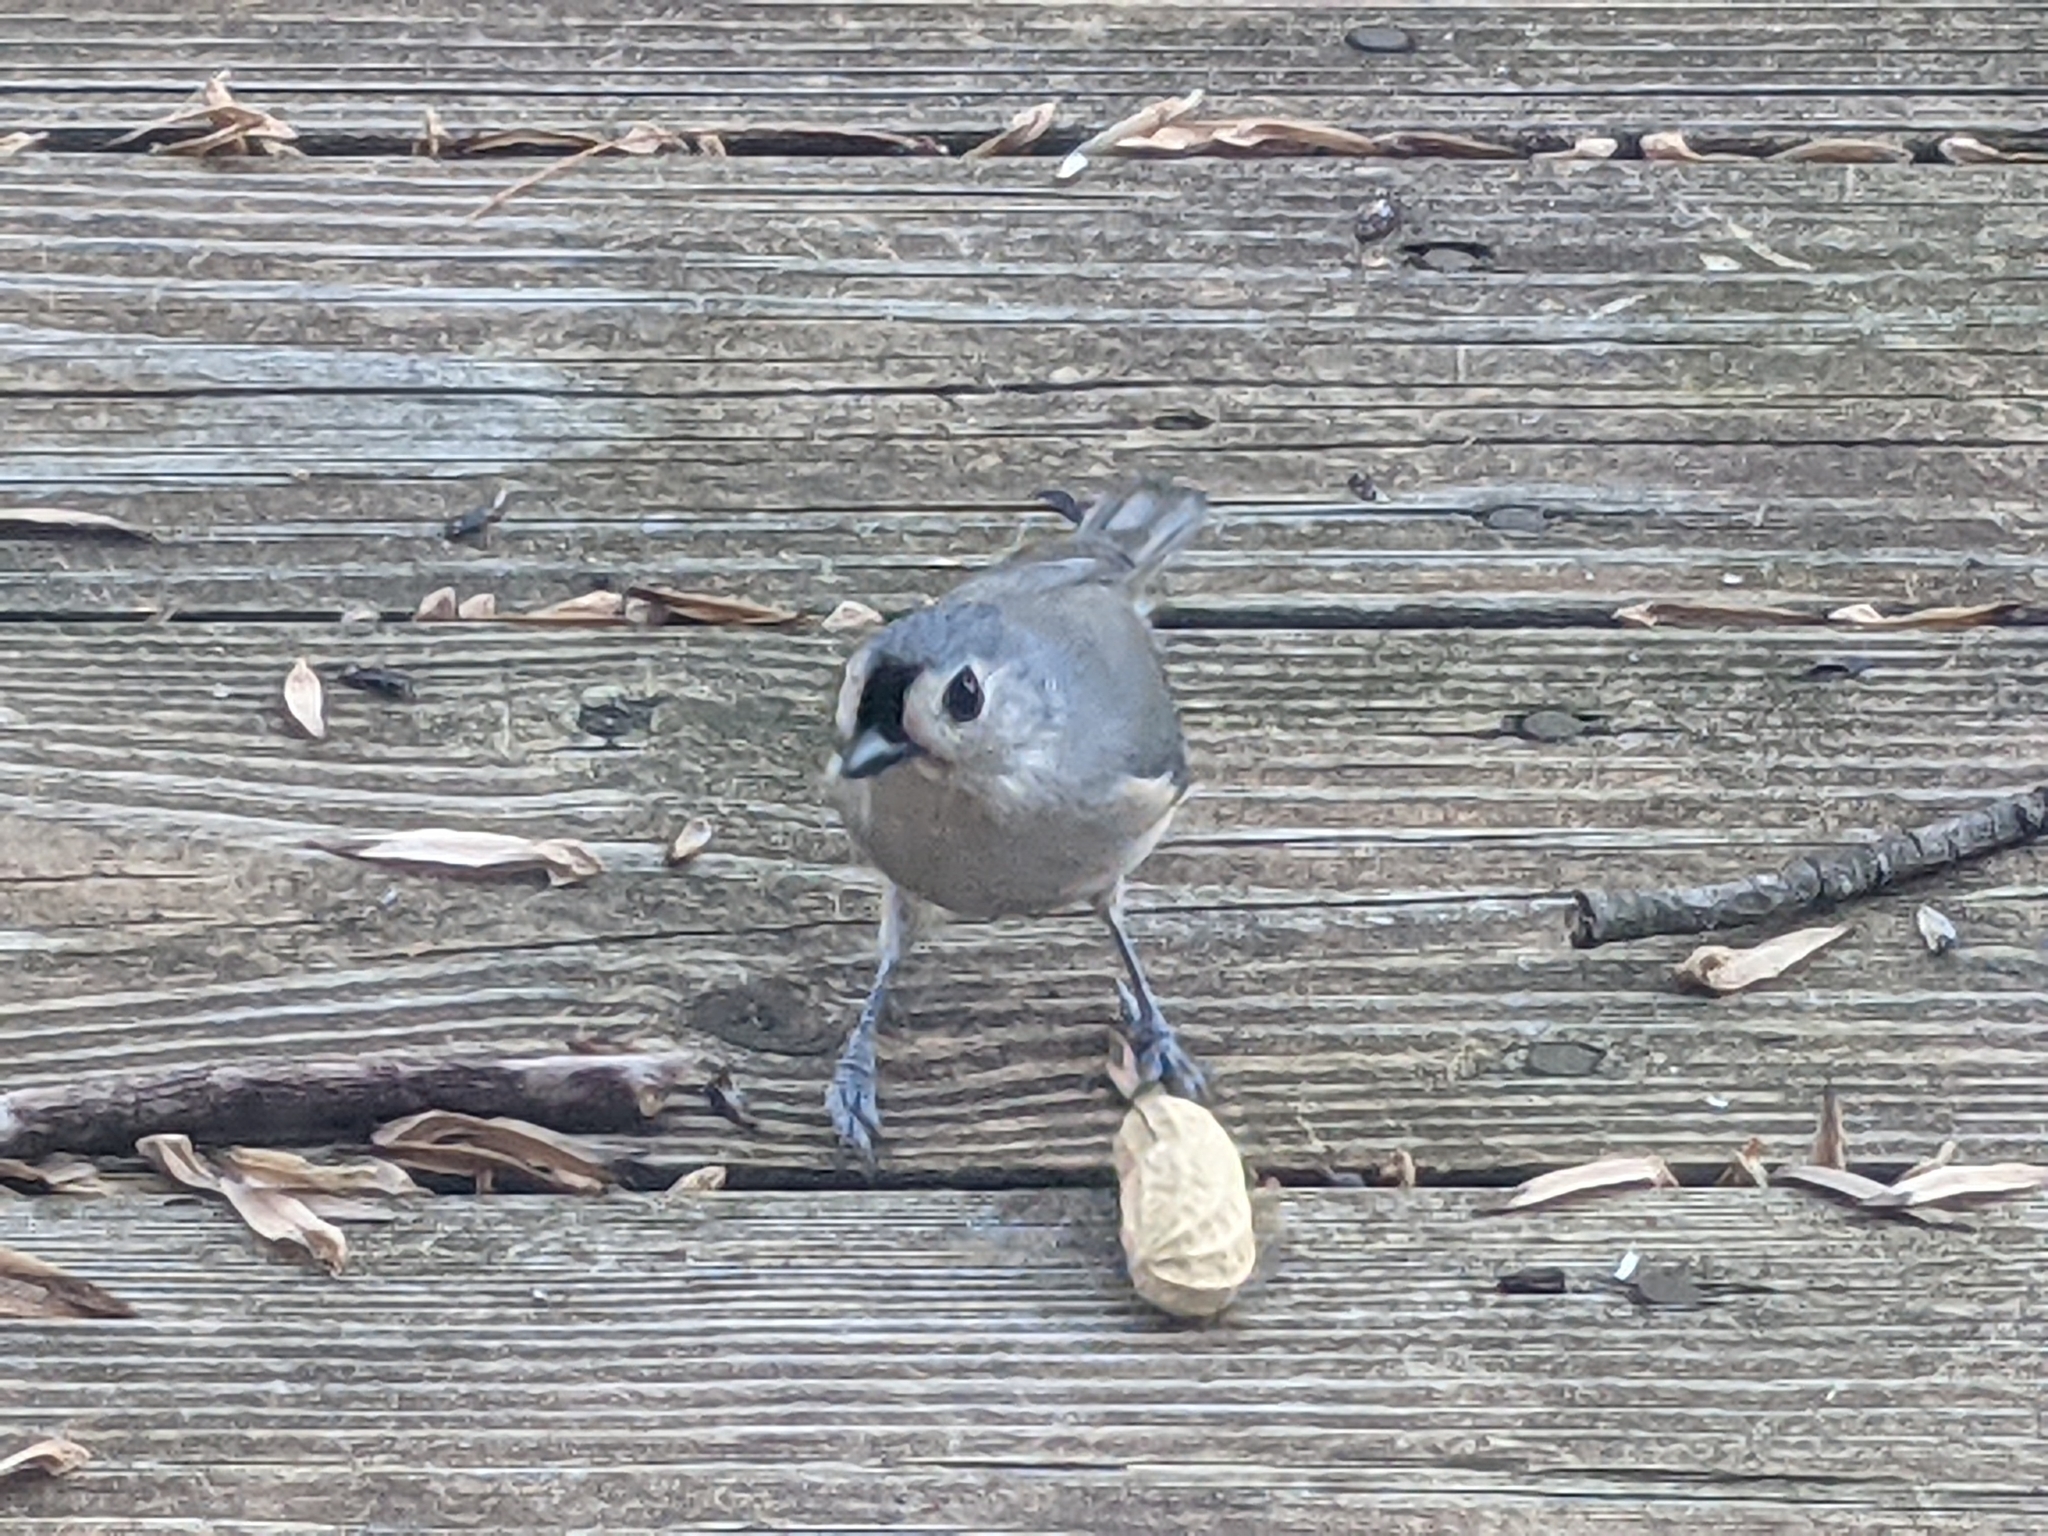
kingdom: Animalia
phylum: Chordata
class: Aves
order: Passeriformes
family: Paridae
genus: Baeolophus
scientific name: Baeolophus bicolor
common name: Tufted titmouse
